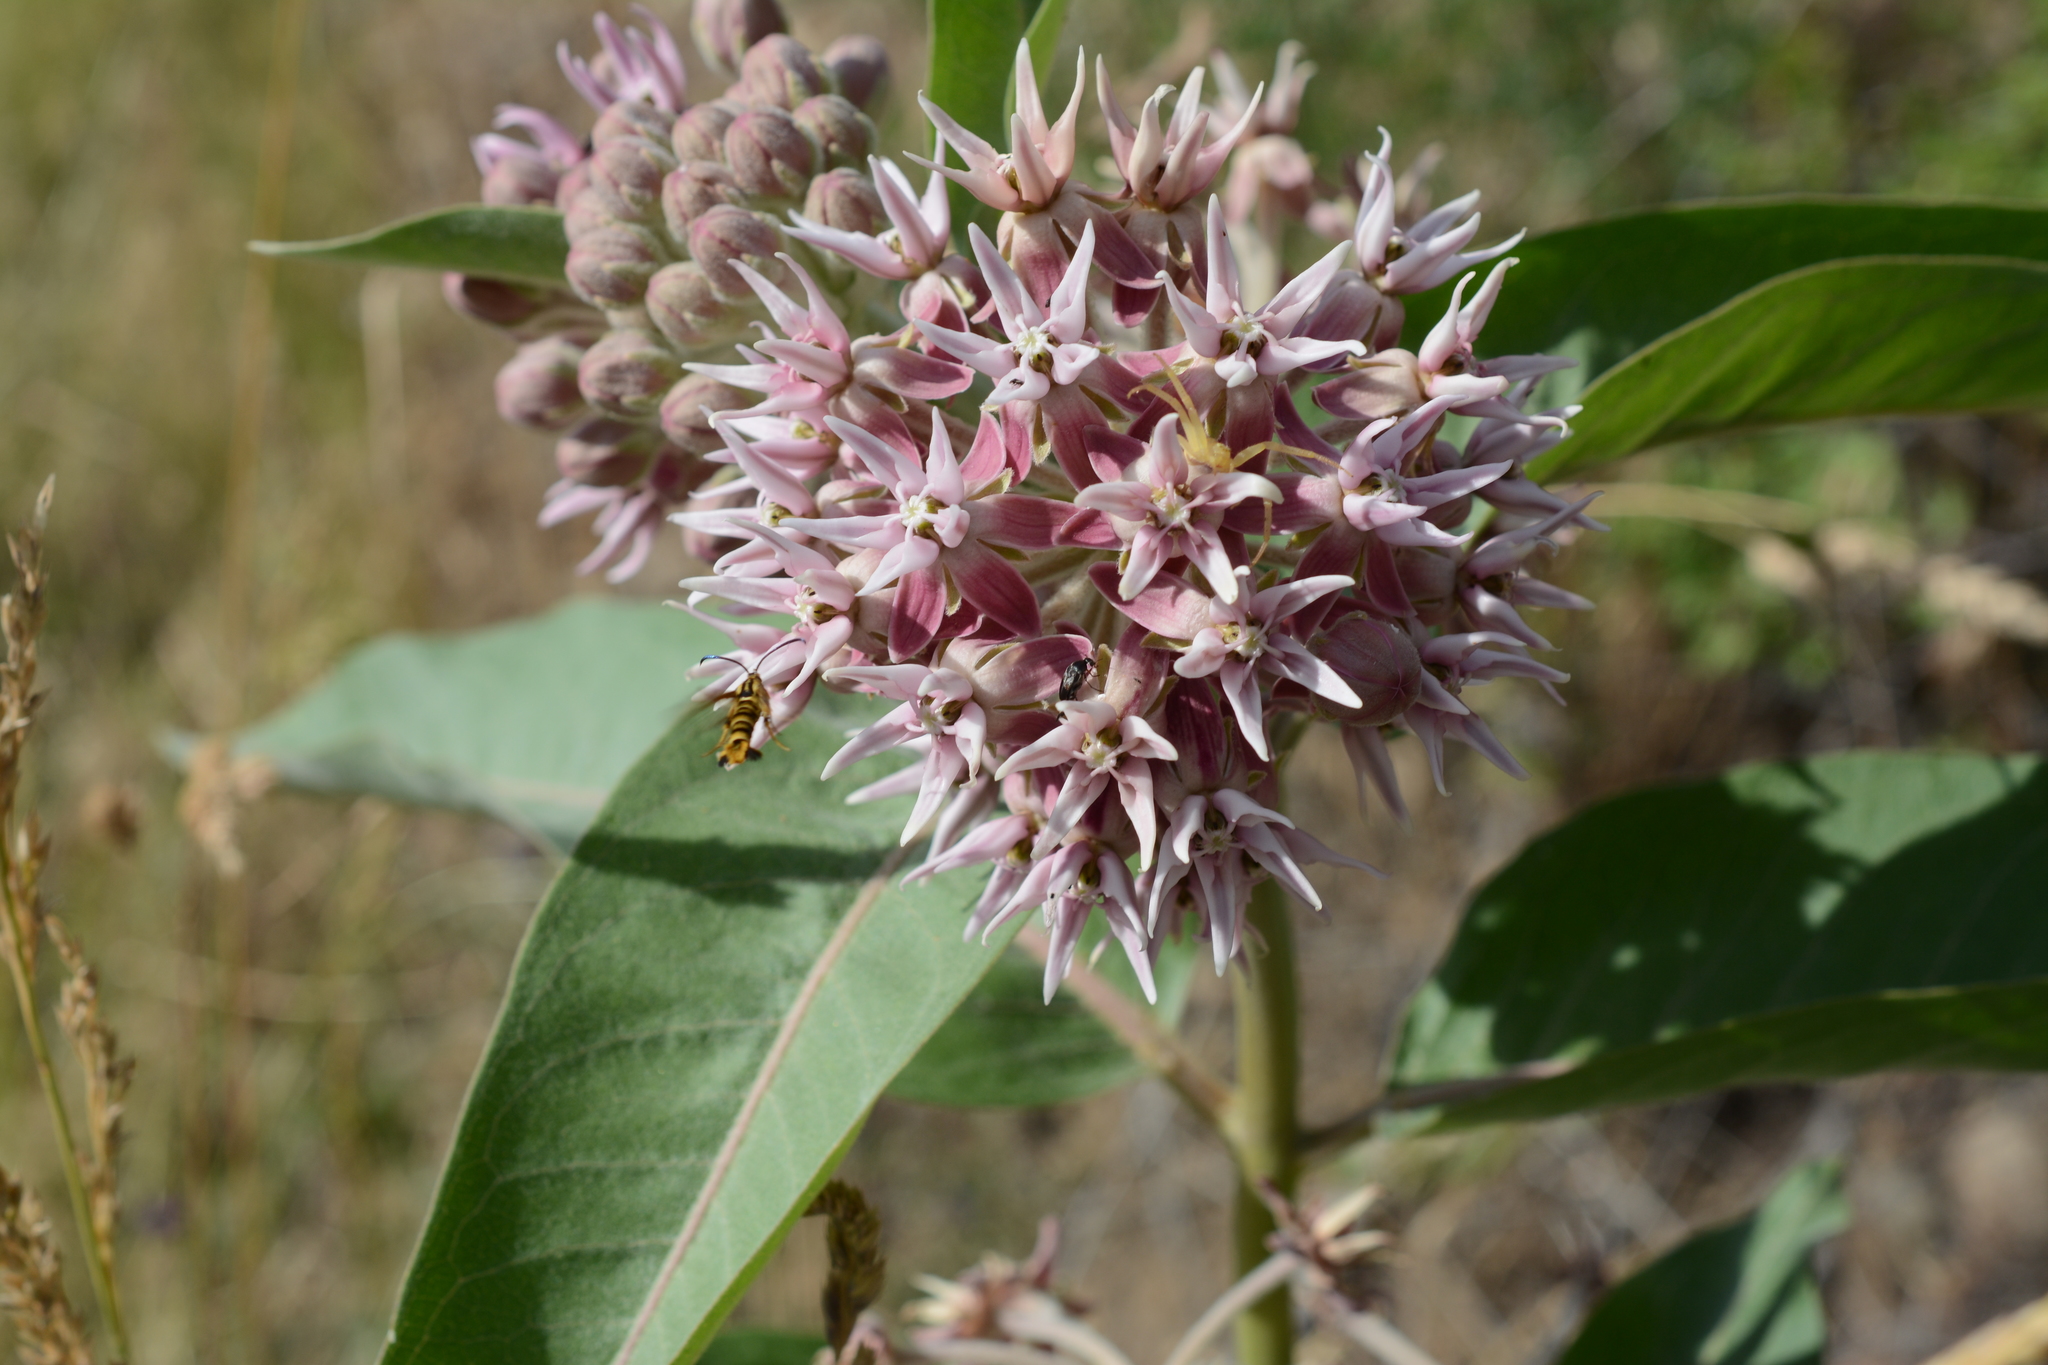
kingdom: Plantae
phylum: Tracheophyta
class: Magnoliopsida
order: Gentianales
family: Apocynaceae
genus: Asclepias
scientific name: Asclepias speciosa
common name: Showy milkweed
